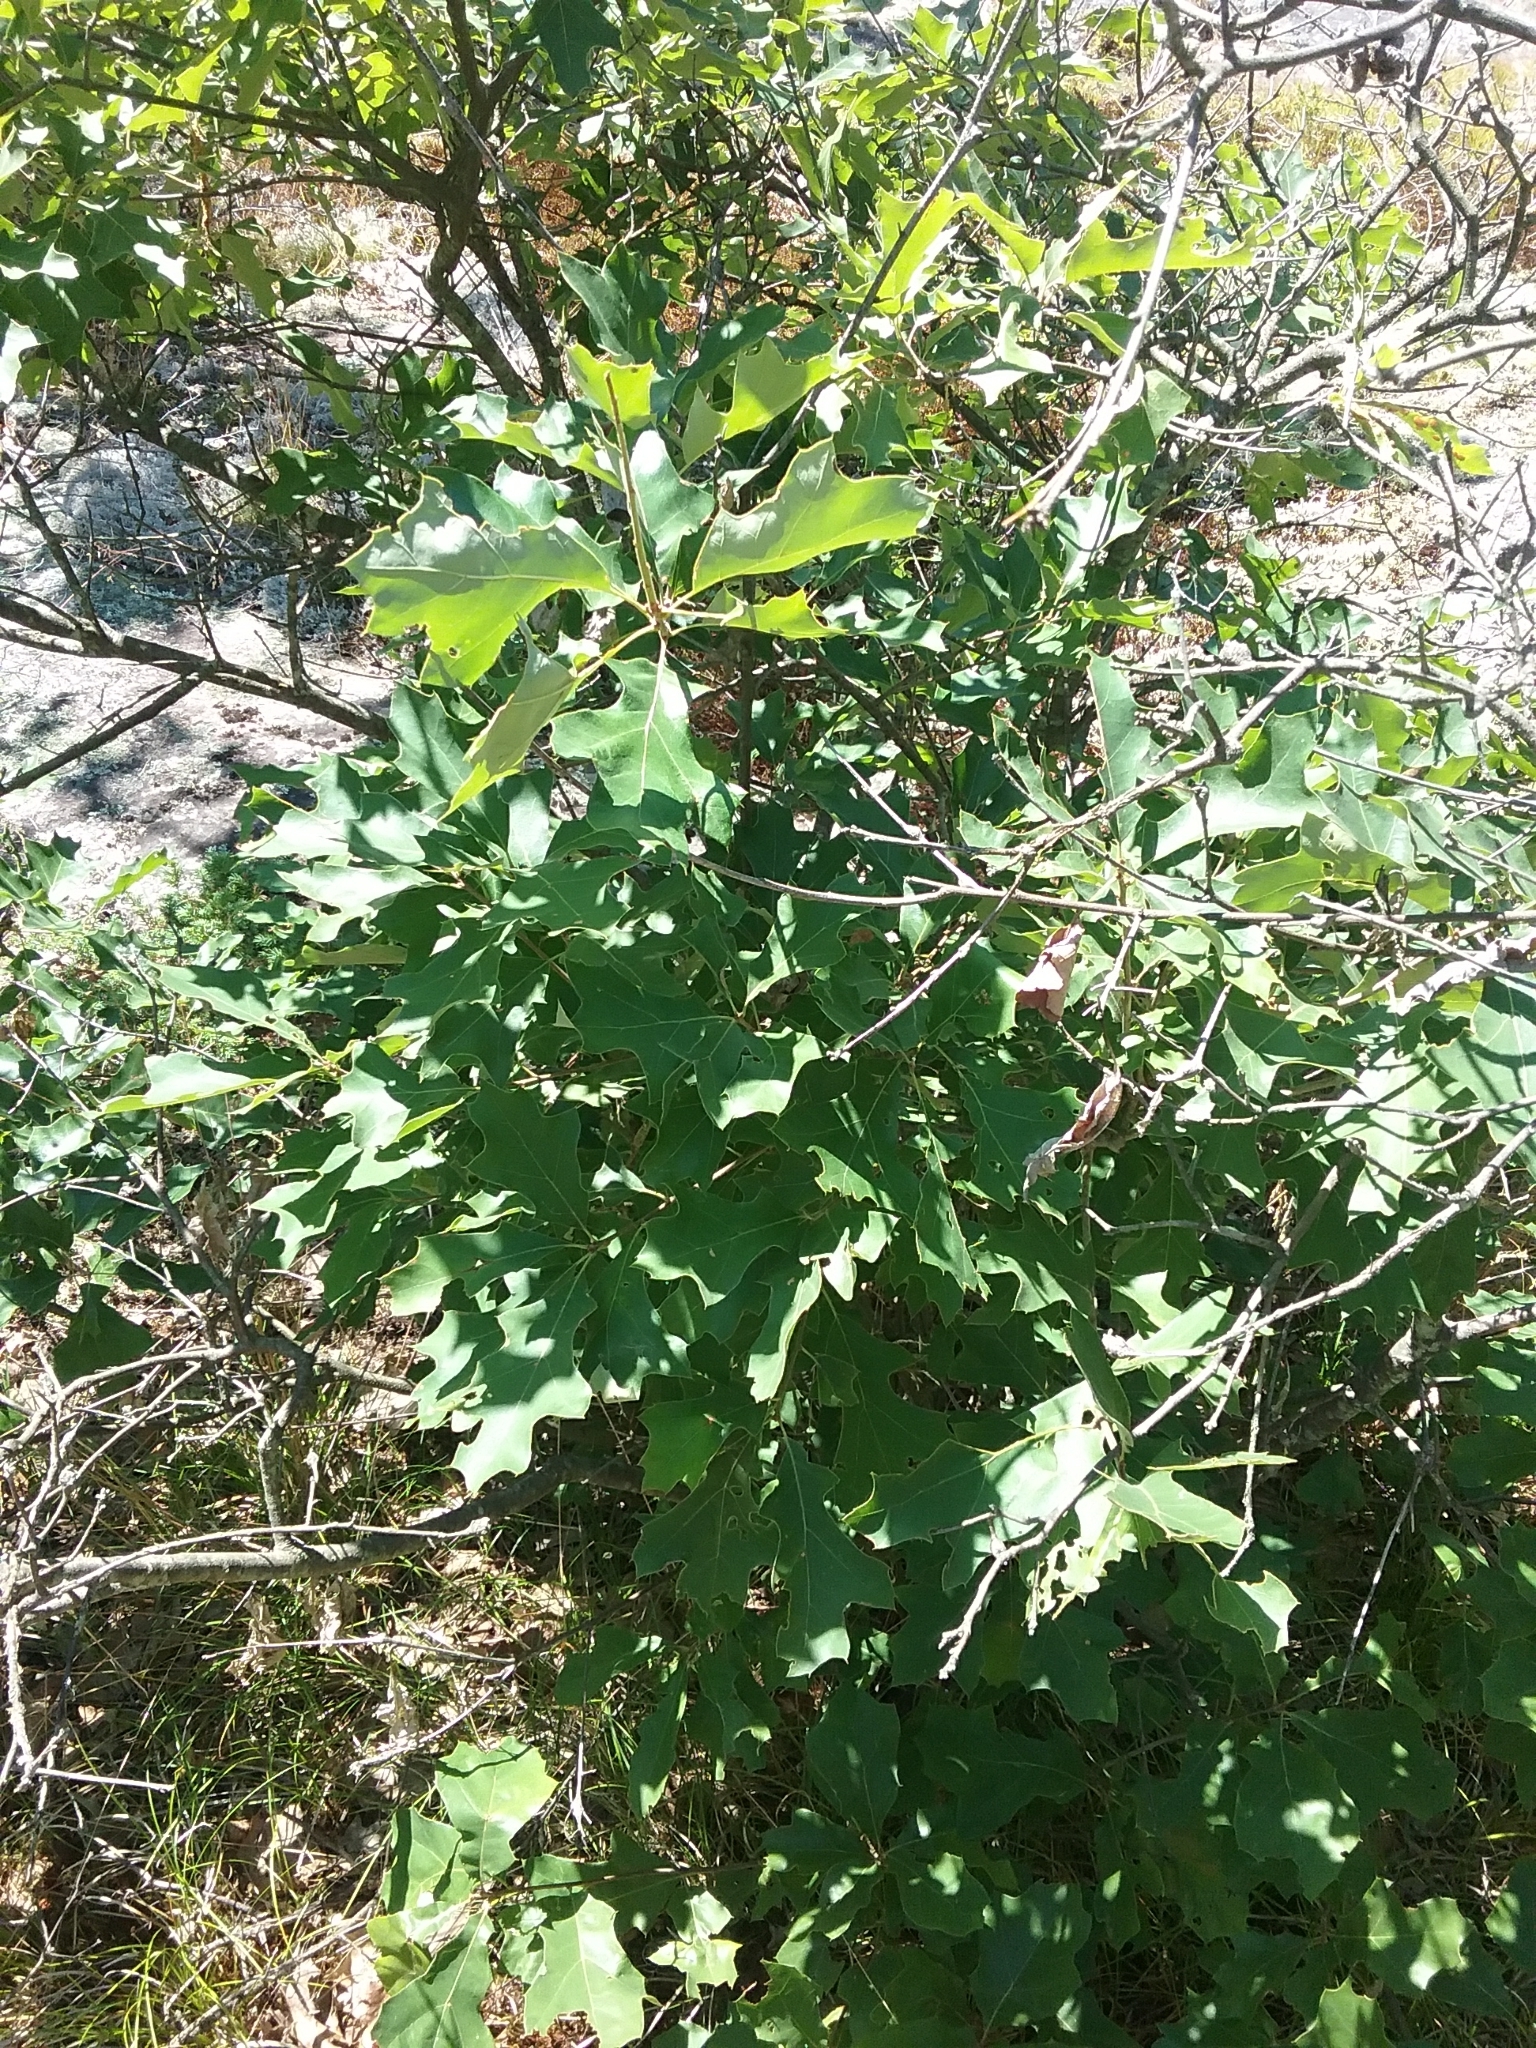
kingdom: Plantae
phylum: Tracheophyta
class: Magnoliopsida
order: Fagales
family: Fagaceae
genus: Quercus
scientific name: Quercus ilicifolia
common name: Bear oak
